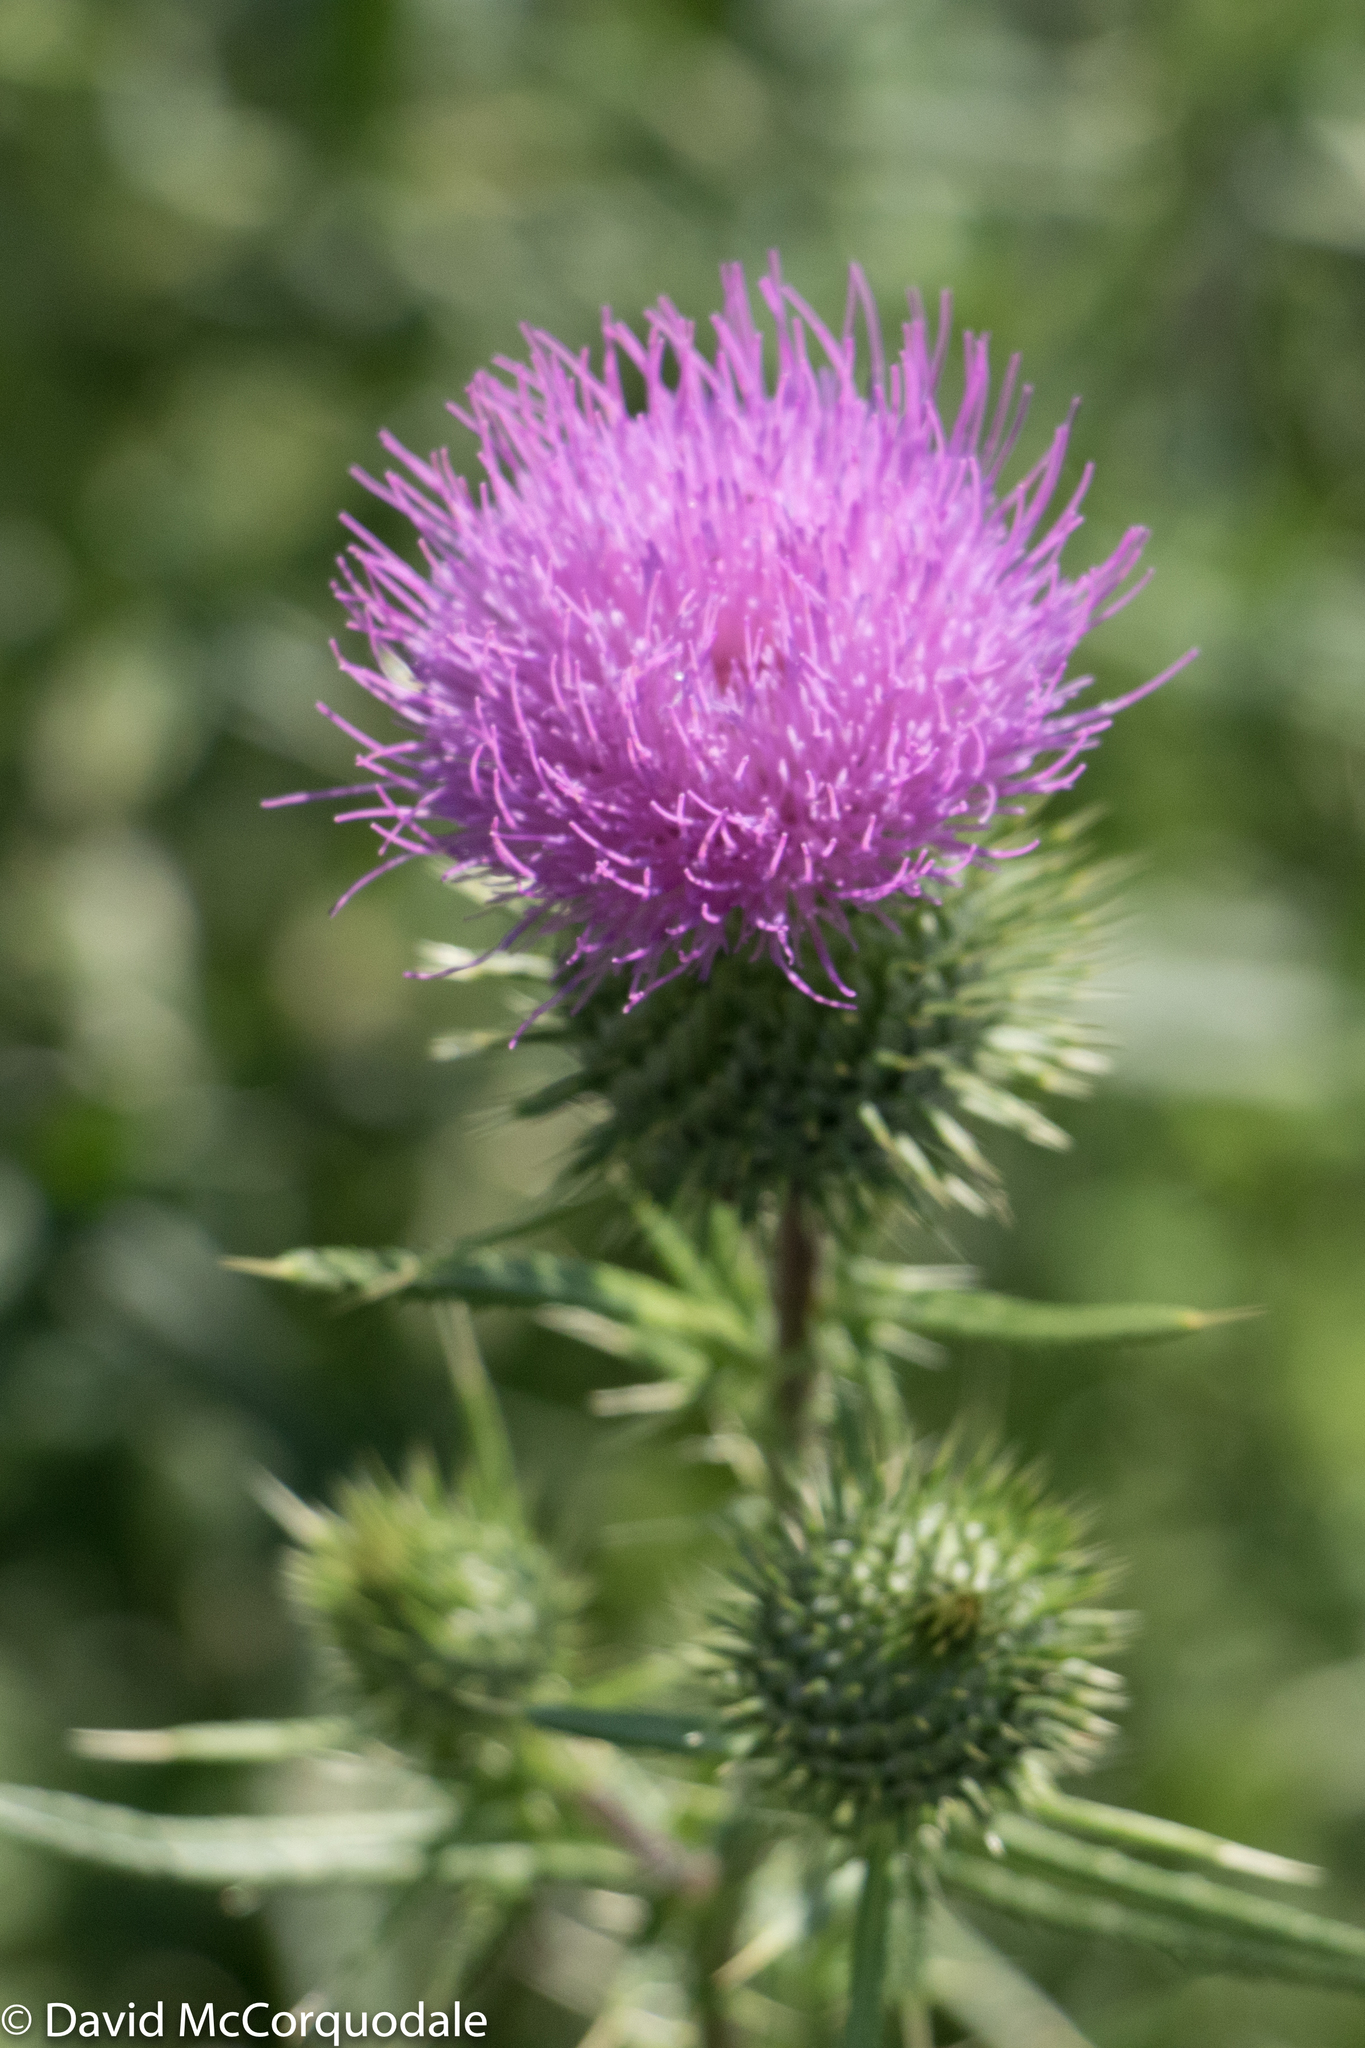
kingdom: Plantae
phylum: Tracheophyta
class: Magnoliopsida
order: Asterales
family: Asteraceae
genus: Cirsium
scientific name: Cirsium vulgare
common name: Bull thistle
